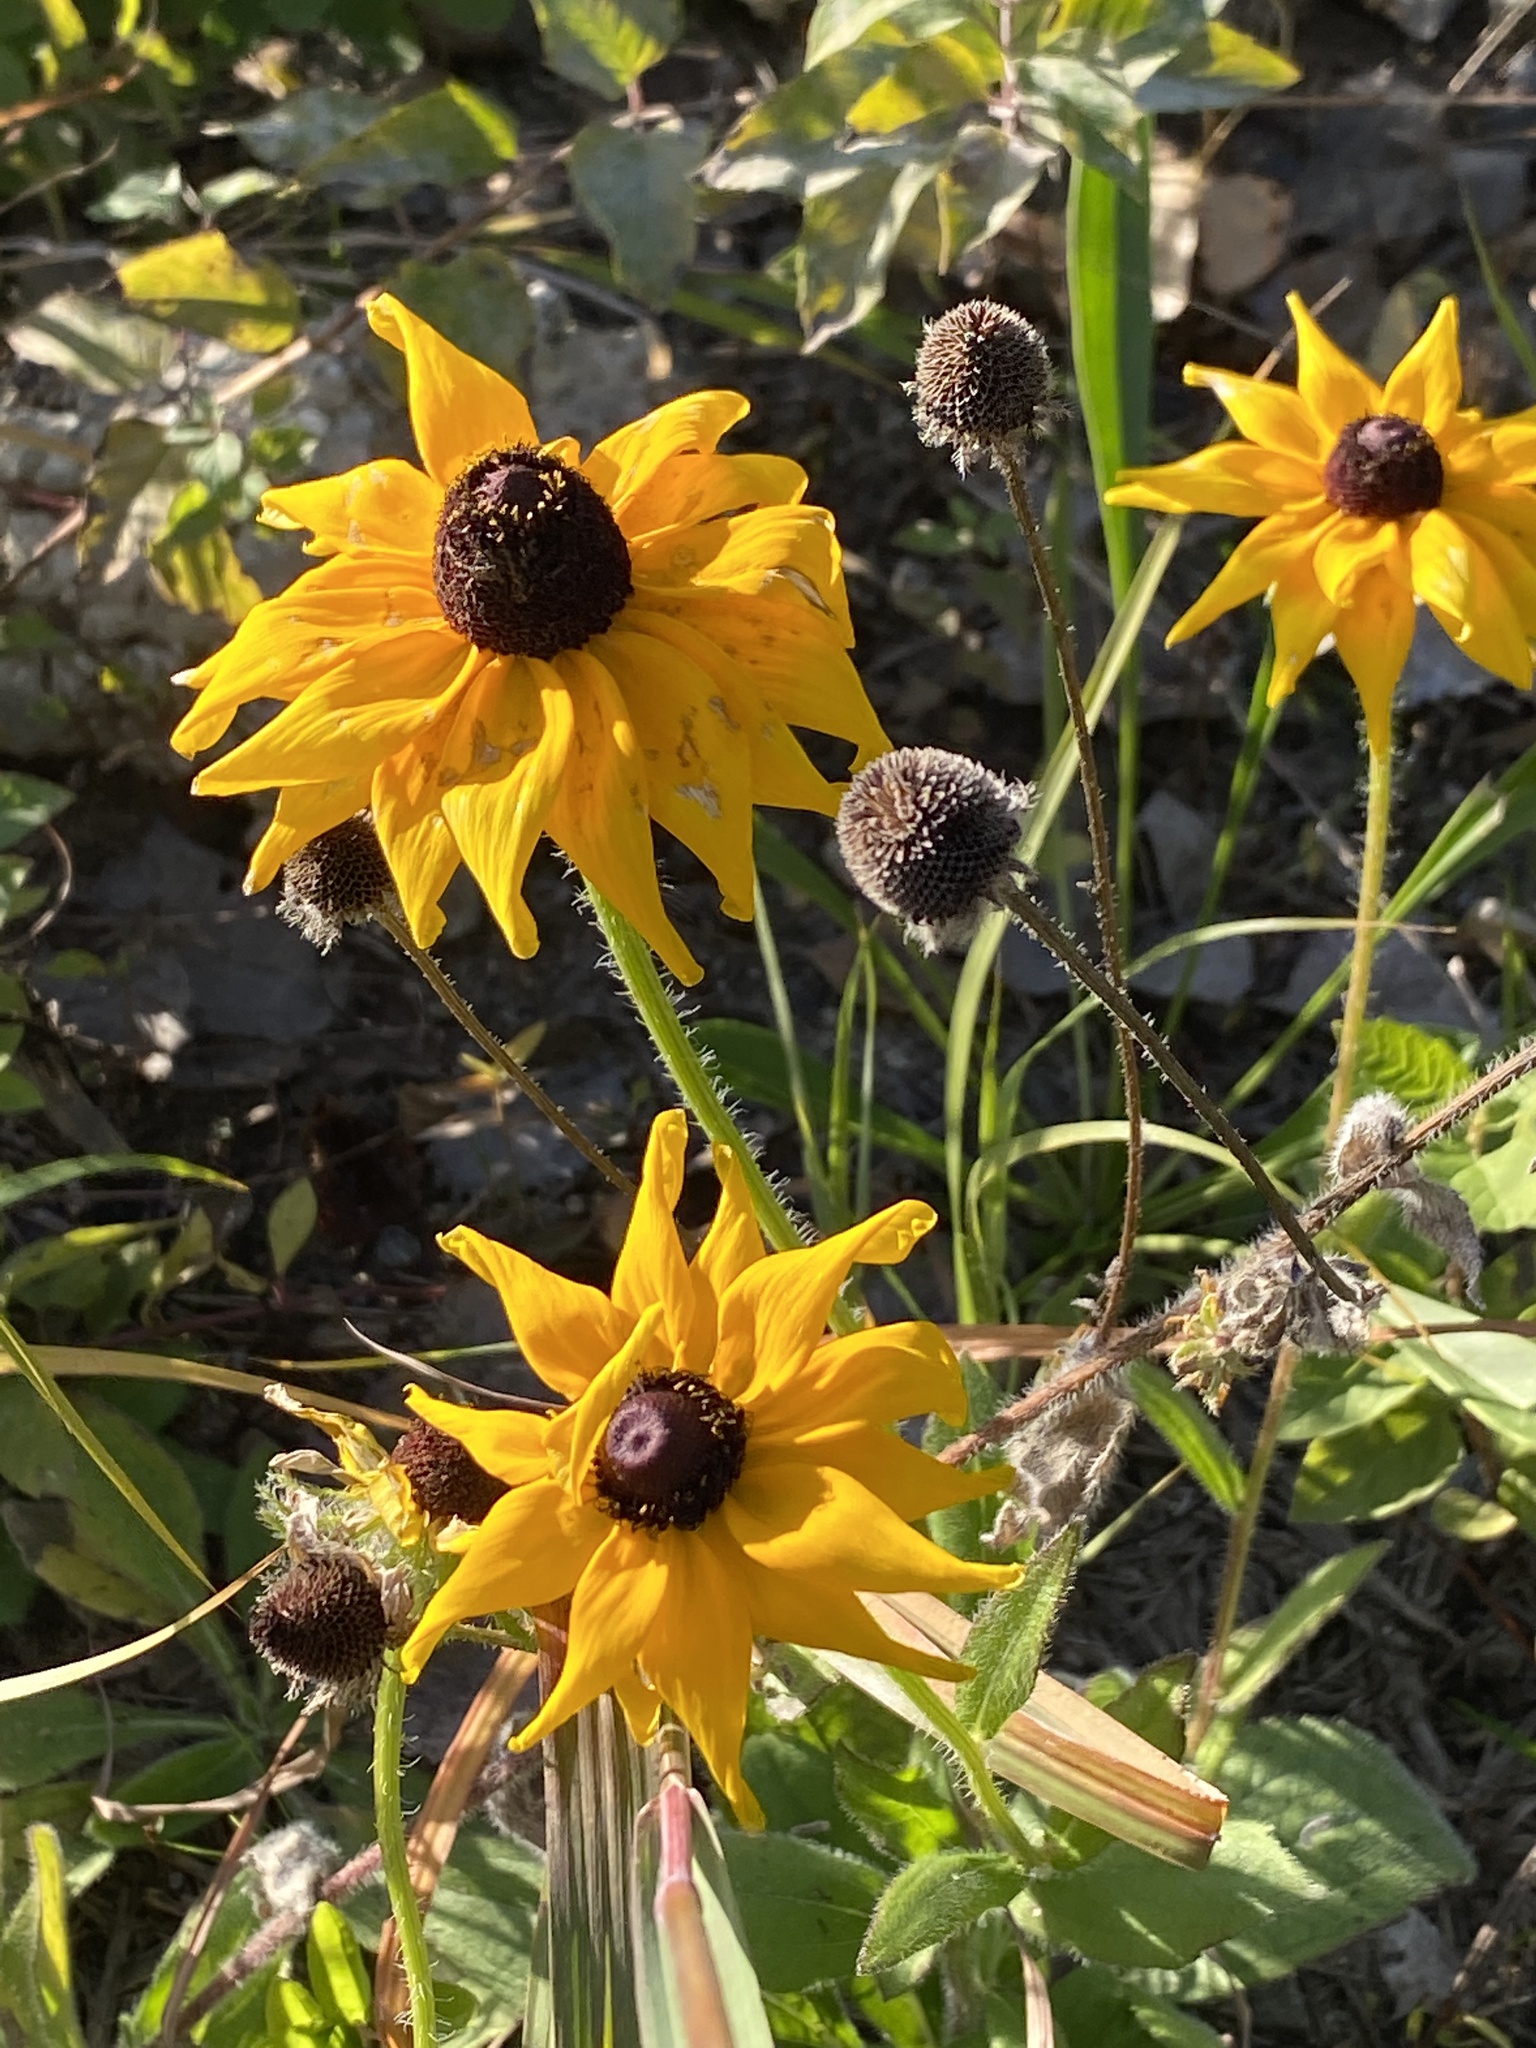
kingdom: Plantae
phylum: Tracheophyta
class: Magnoliopsida
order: Asterales
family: Asteraceae
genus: Rudbeckia
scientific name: Rudbeckia hirta
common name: Black-eyed-susan
